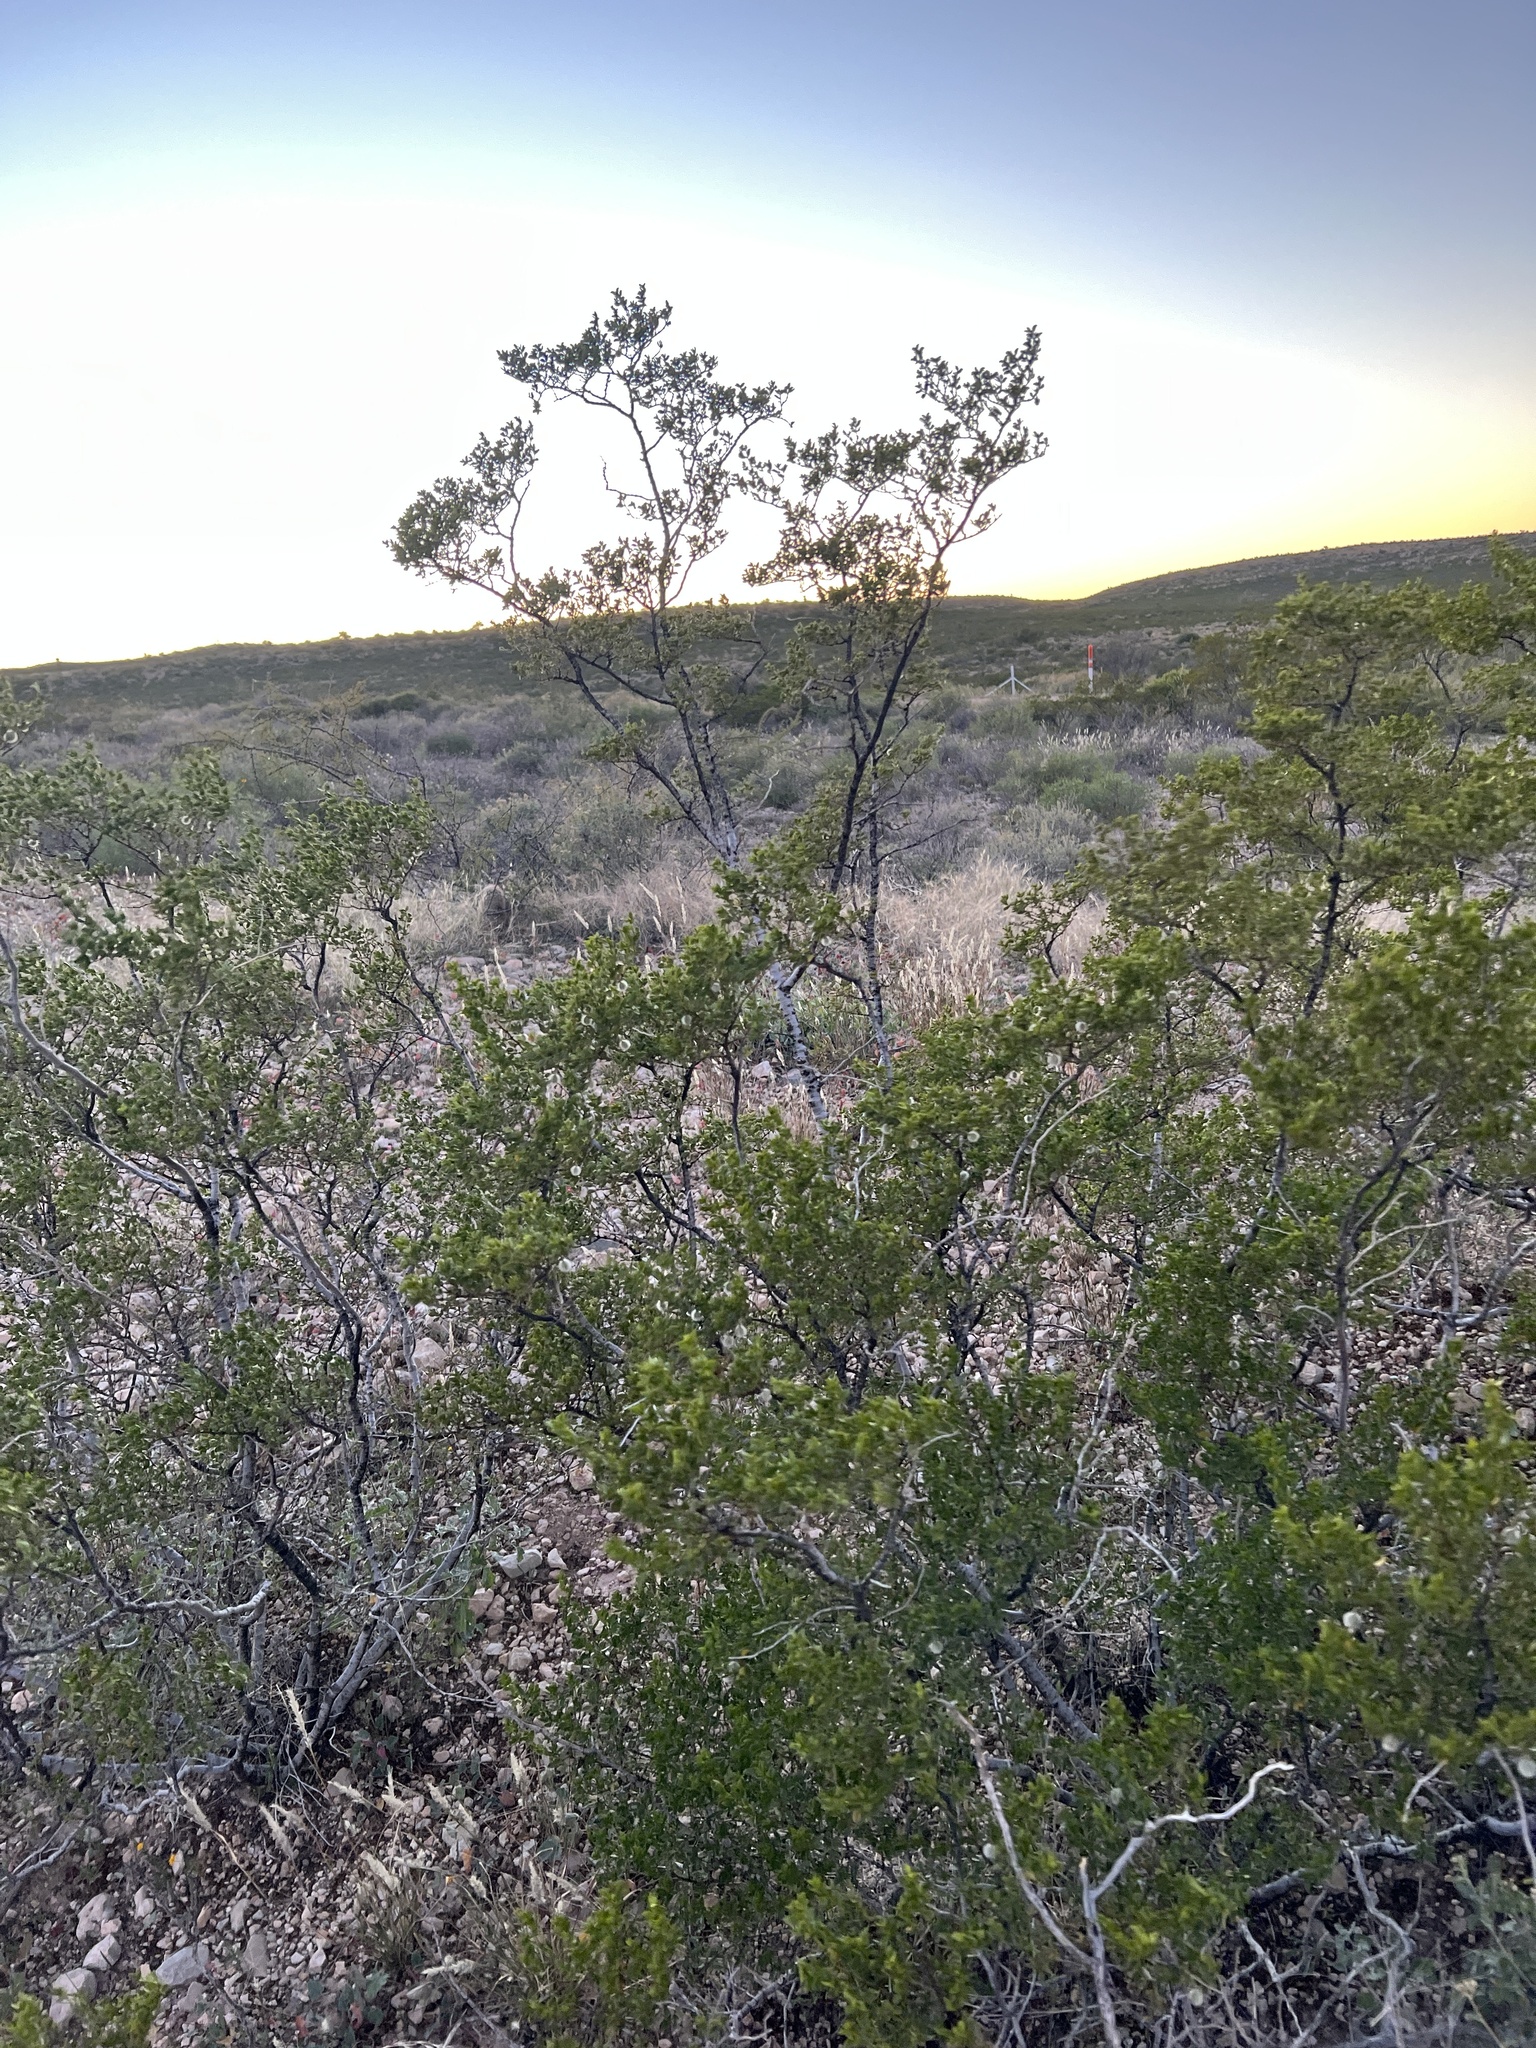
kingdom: Plantae
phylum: Tracheophyta
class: Magnoliopsida
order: Zygophyllales
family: Zygophyllaceae
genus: Larrea
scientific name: Larrea tridentata
